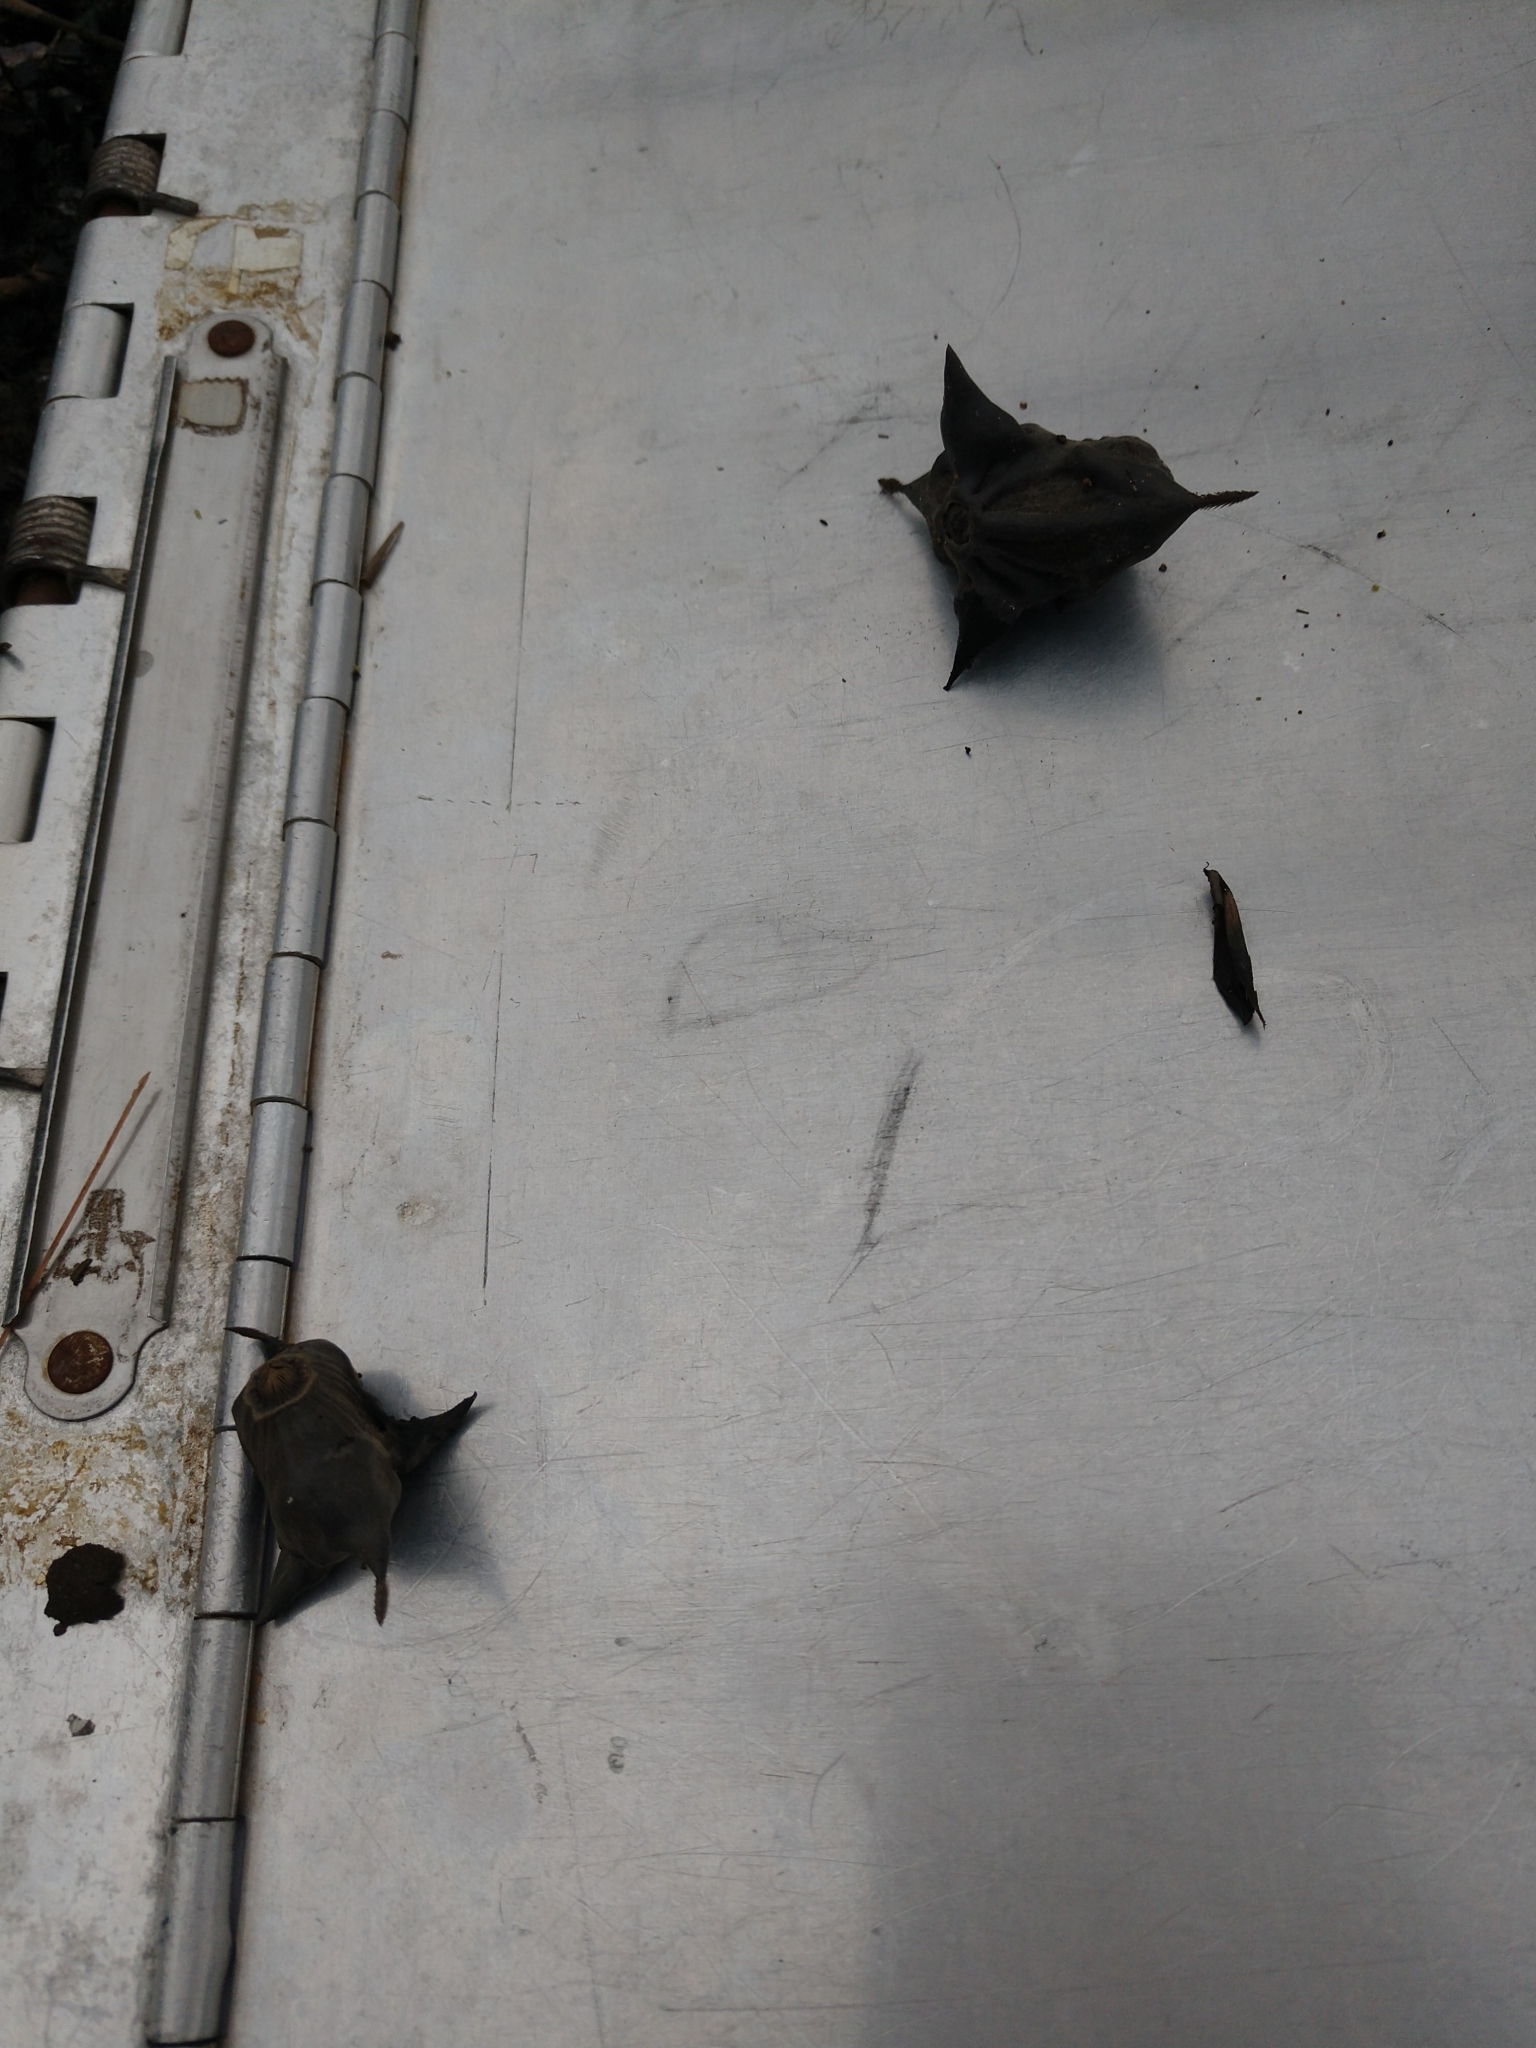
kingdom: Plantae
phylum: Tracheophyta
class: Magnoliopsida
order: Myrtales
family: Lythraceae
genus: Trapa
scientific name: Trapa natans
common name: Water chestnut
